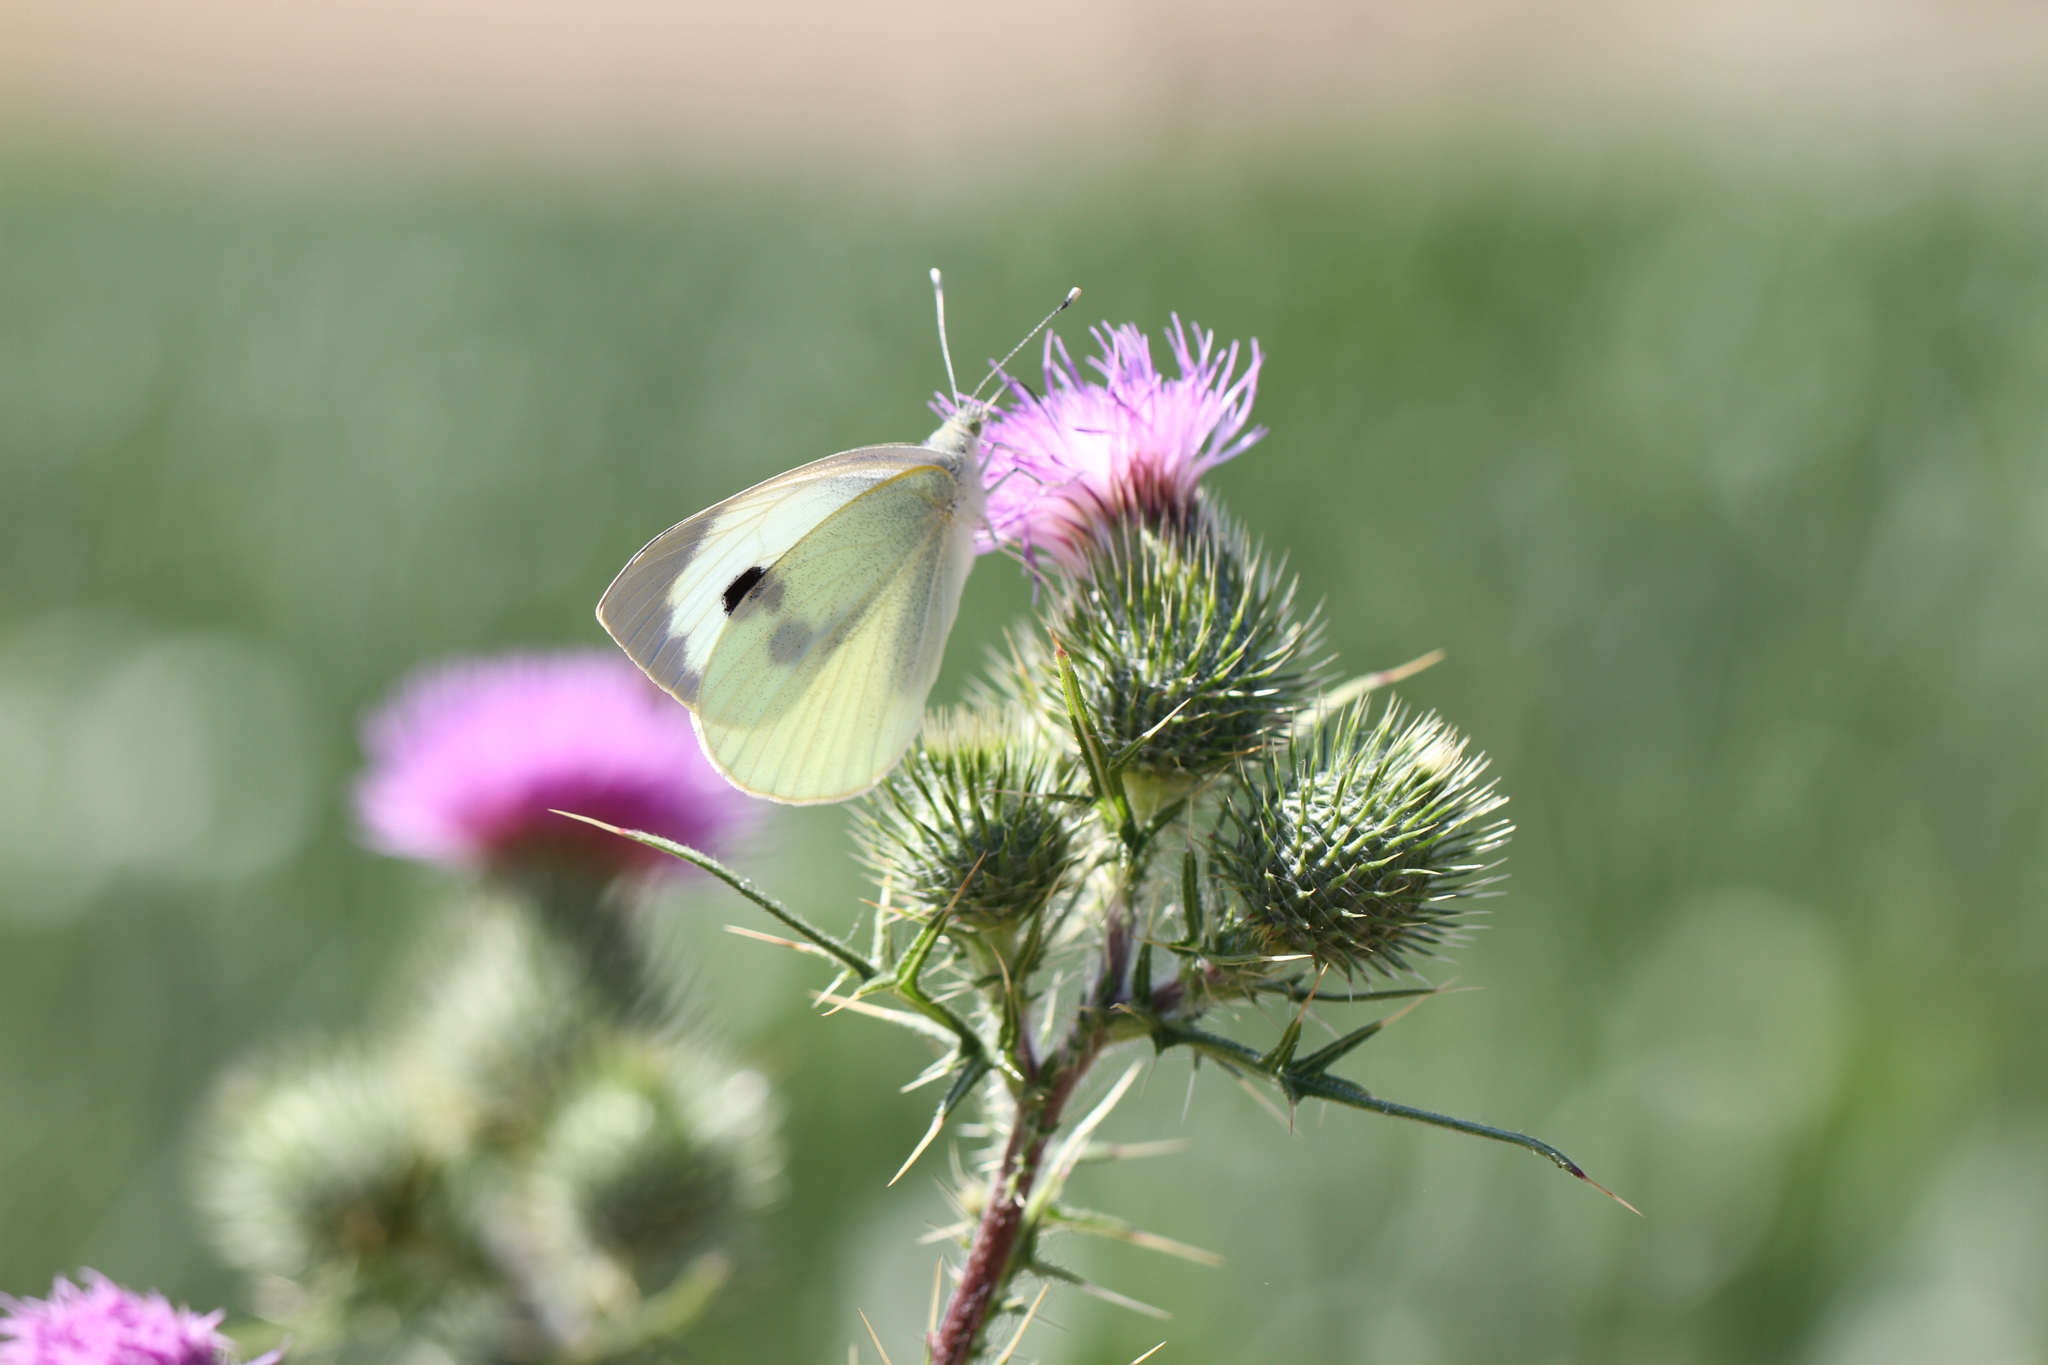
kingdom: Animalia
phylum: Arthropoda
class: Insecta
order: Lepidoptera
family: Pieridae
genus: Pieris
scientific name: Pieris brassicae
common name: Large white
